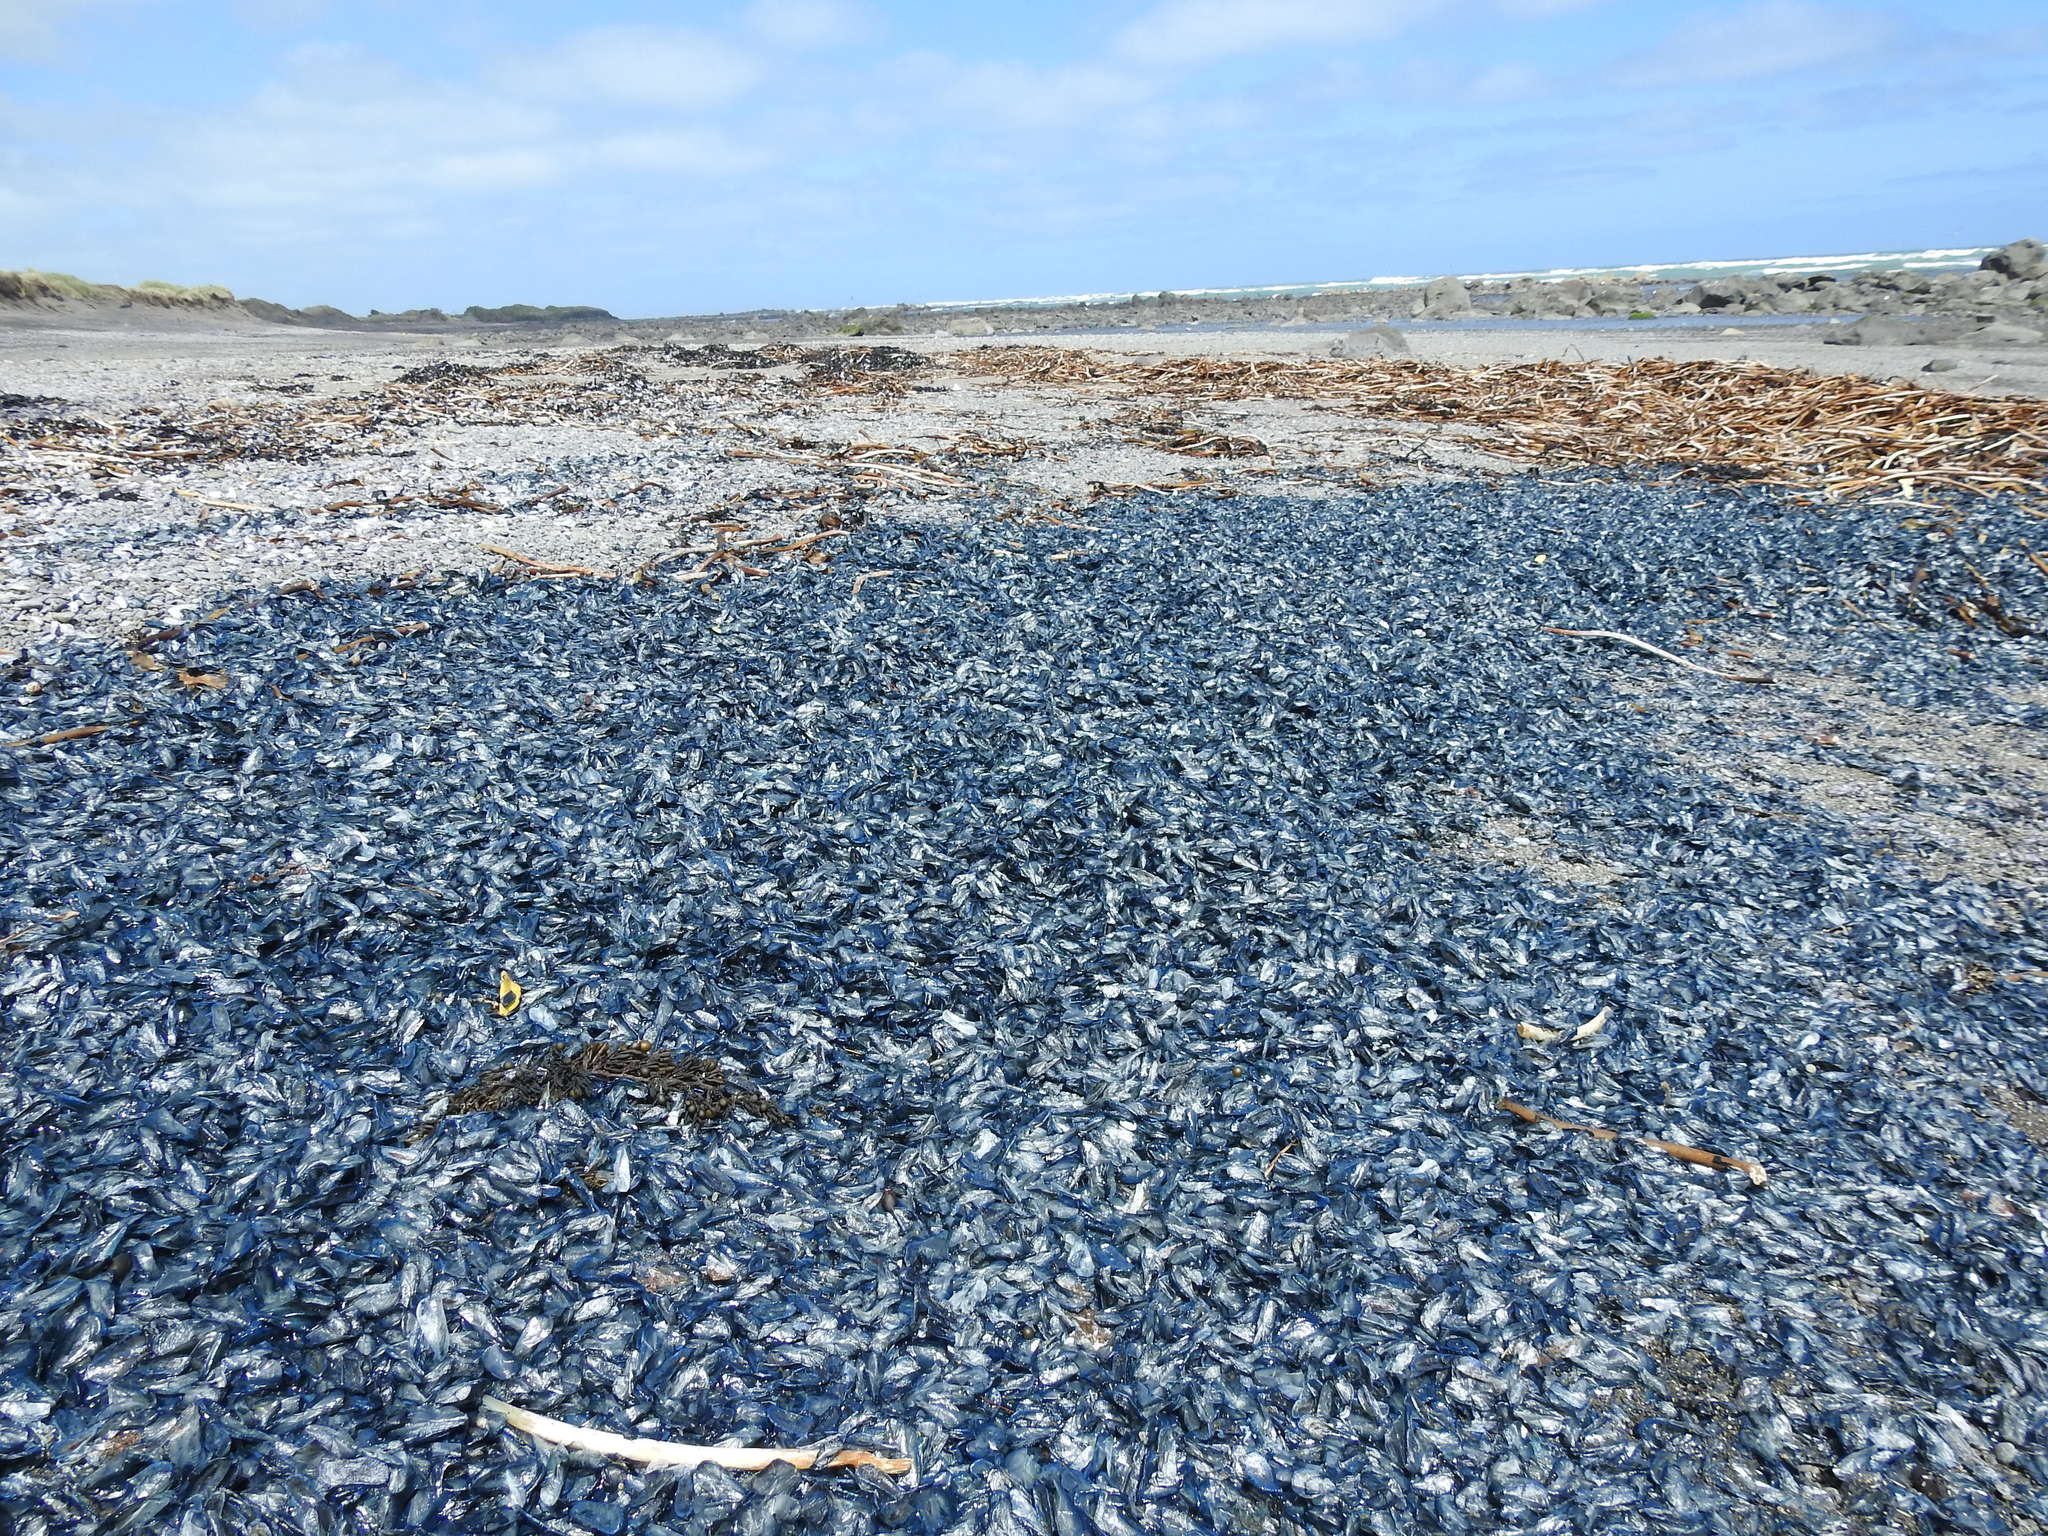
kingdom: Animalia
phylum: Cnidaria
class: Hydrozoa
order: Anthoathecata
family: Porpitidae
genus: Velella
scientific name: Velella velella
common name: By-the-wind-sailor
